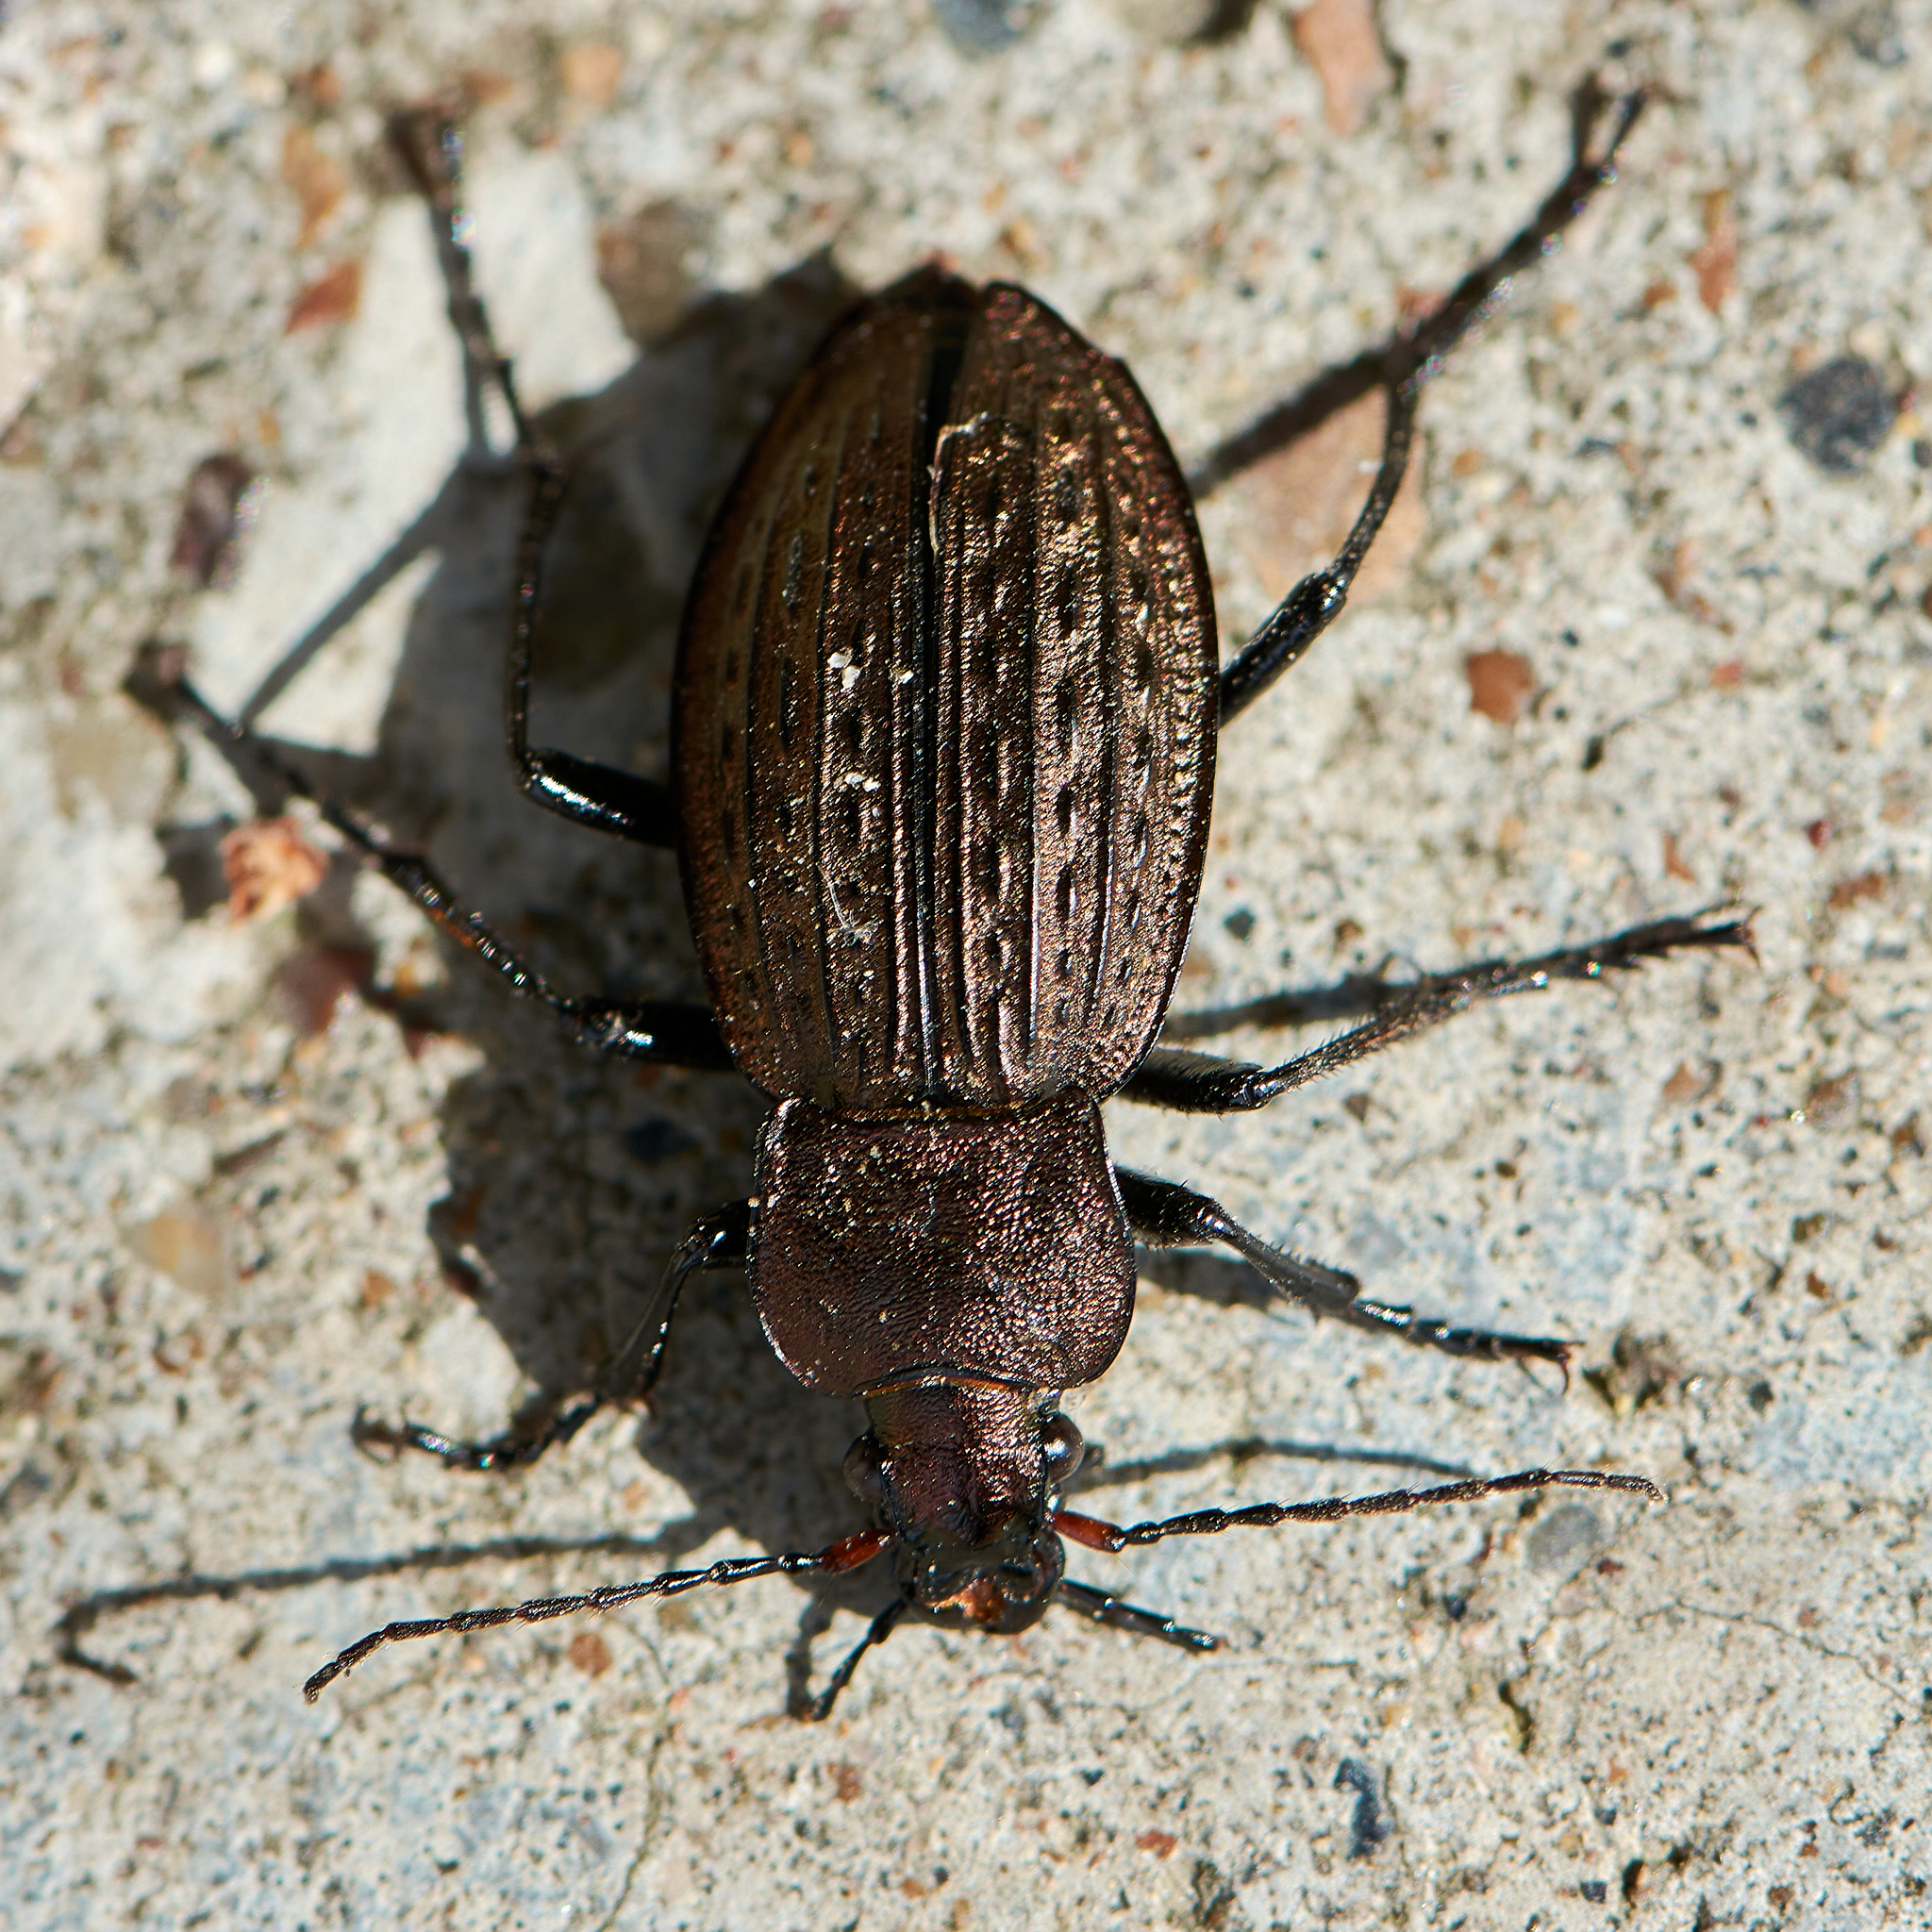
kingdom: Animalia
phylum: Arthropoda
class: Insecta
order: Coleoptera
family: Carabidae
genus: Carabus
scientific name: Carabus cancellatus
